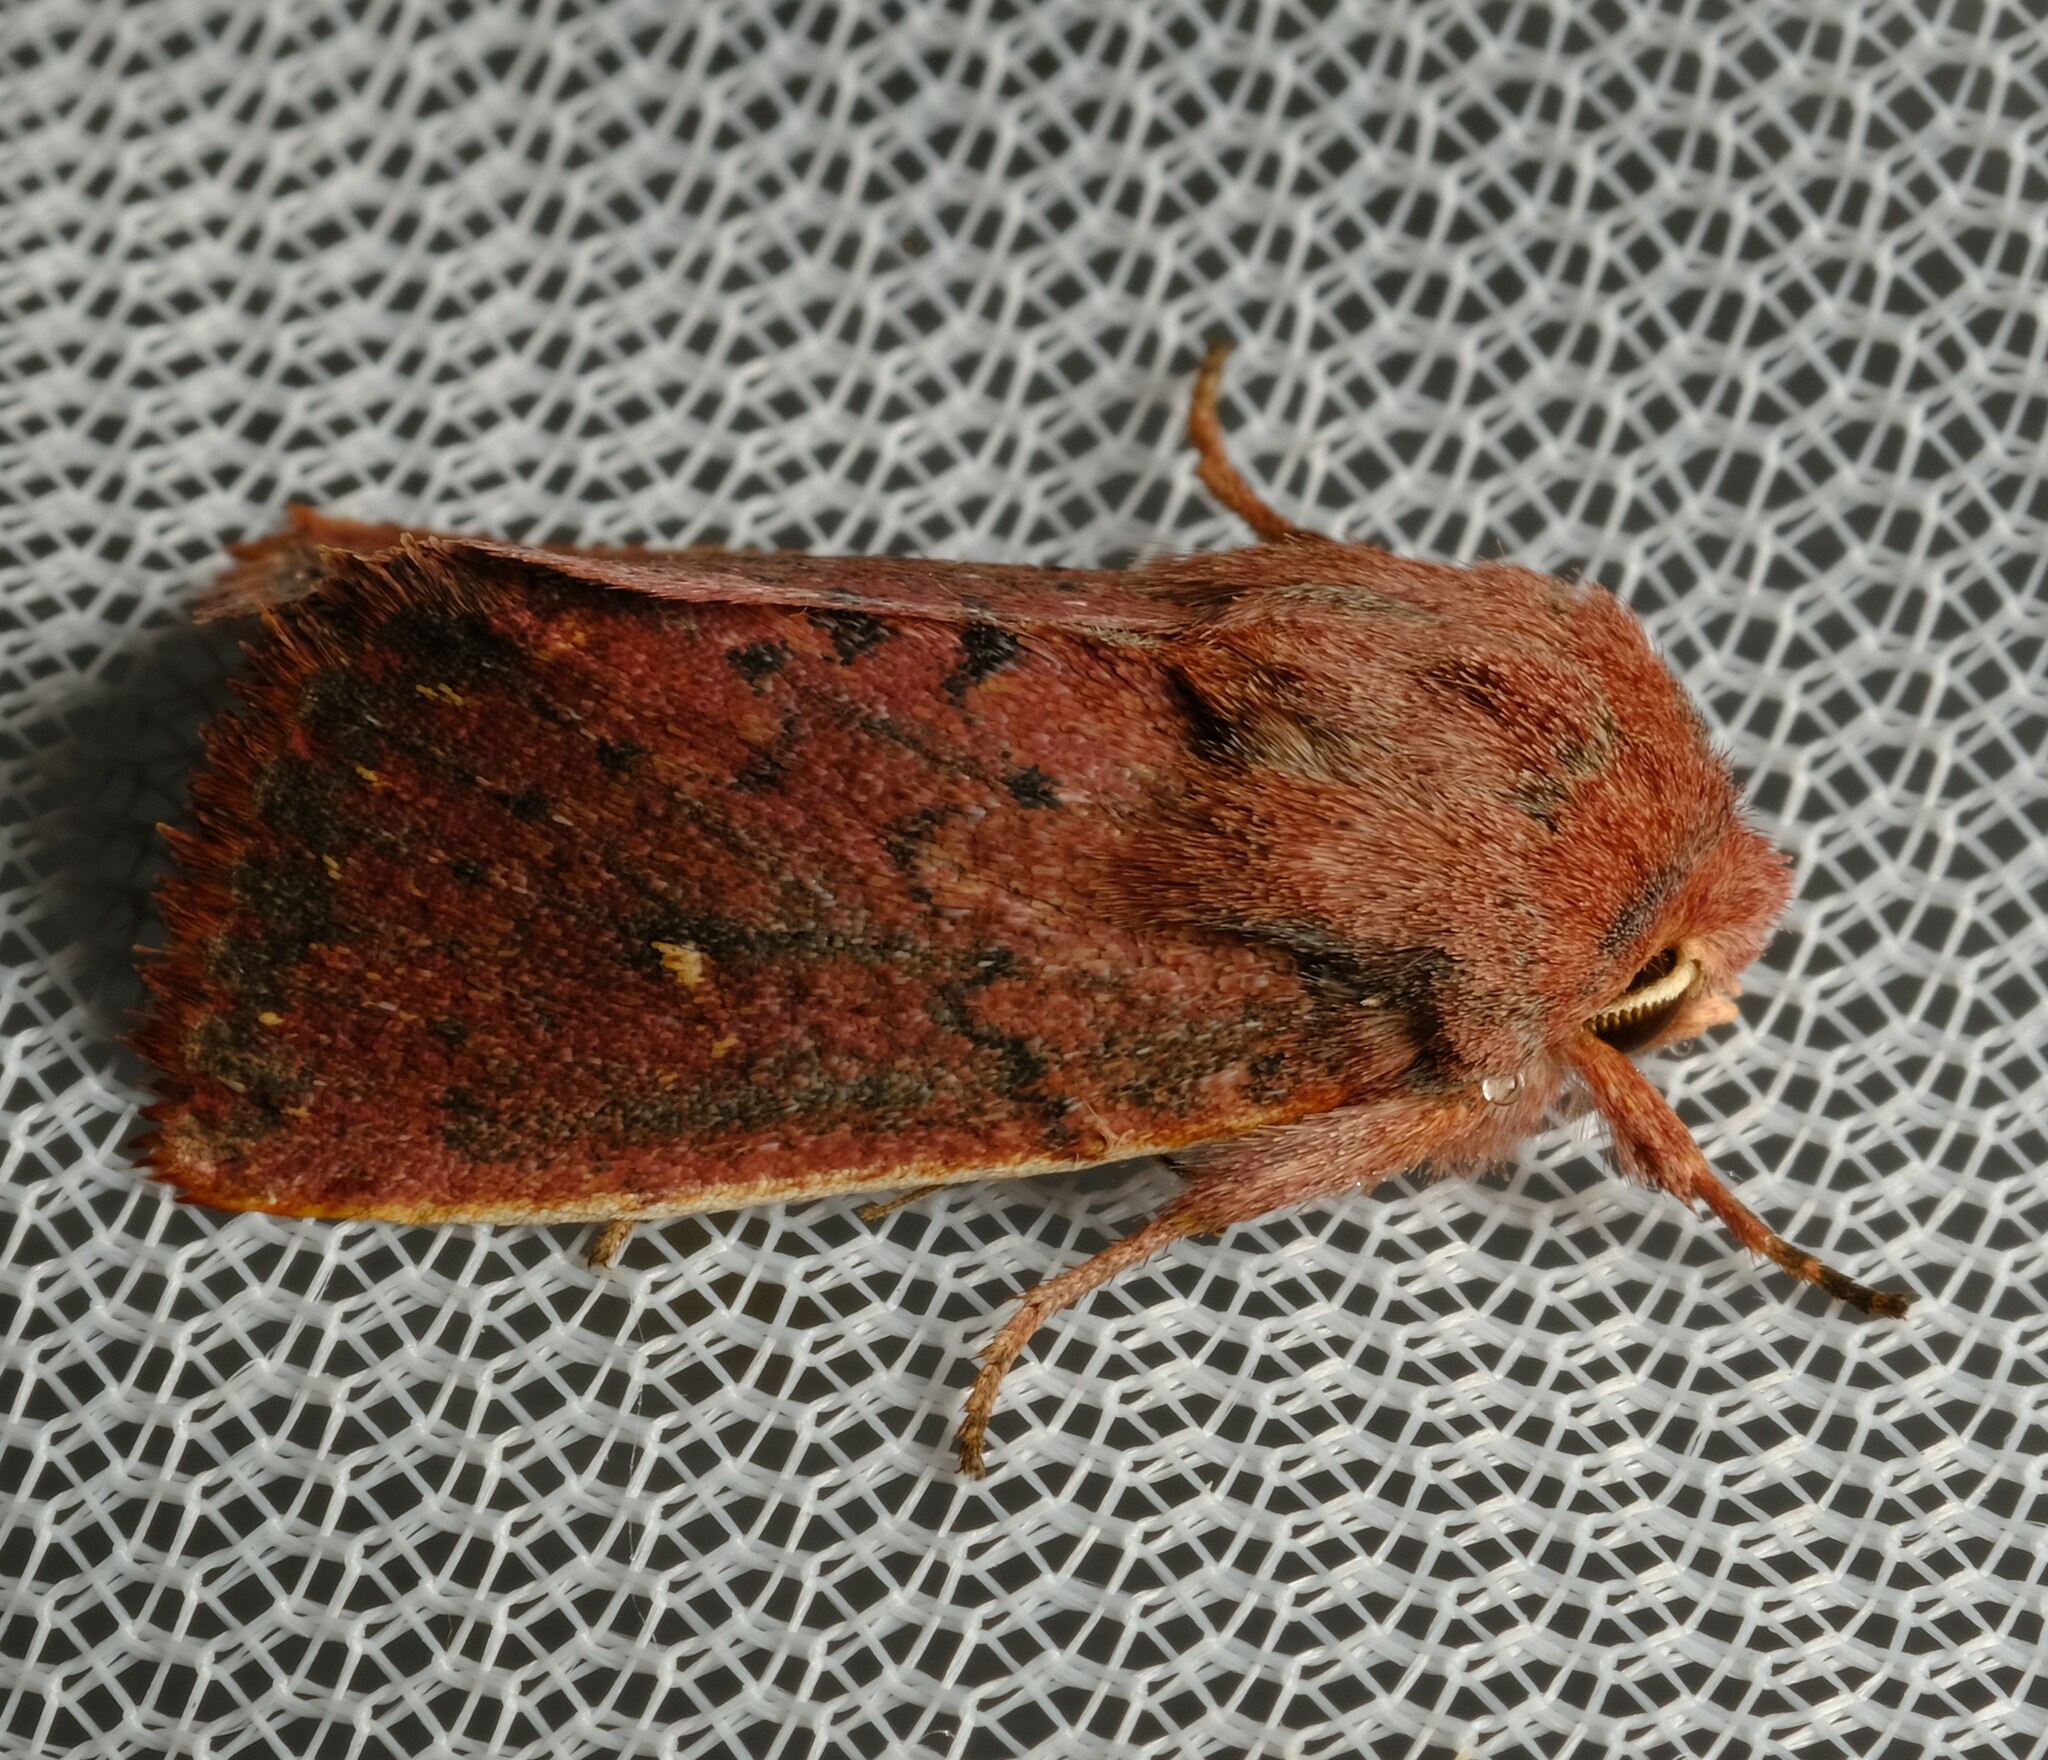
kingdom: Animalia
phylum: Arthropoda
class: Insecta
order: Lepidoptera
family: Noctuidae
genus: Leucania
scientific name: Leucania
